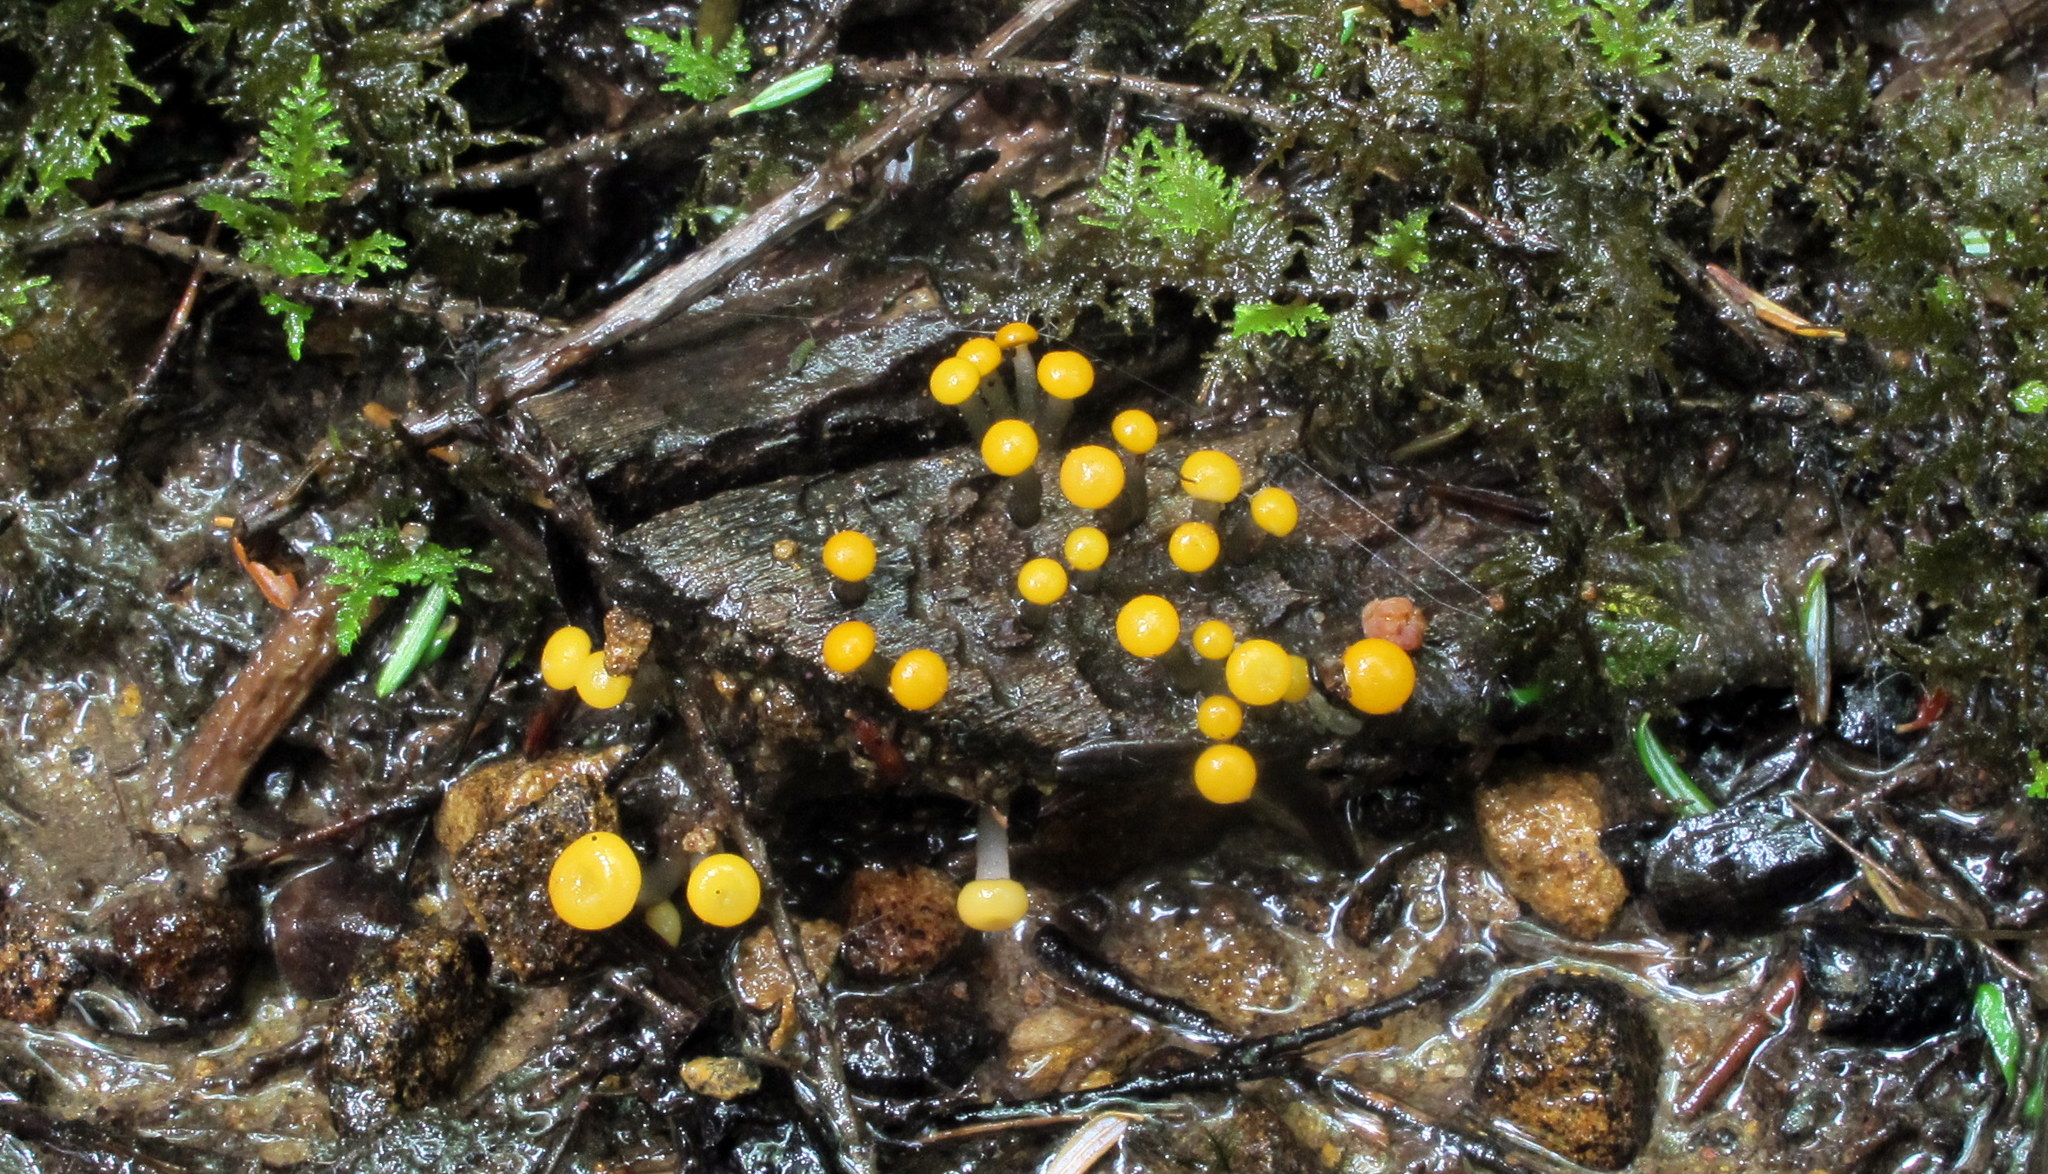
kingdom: Fungi
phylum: Ascomycota
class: Leotiomycetes
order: Helotiales
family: Vibrisseaceae
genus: Vibrissea
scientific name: Vibrissea truncorum
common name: Stream beacon
